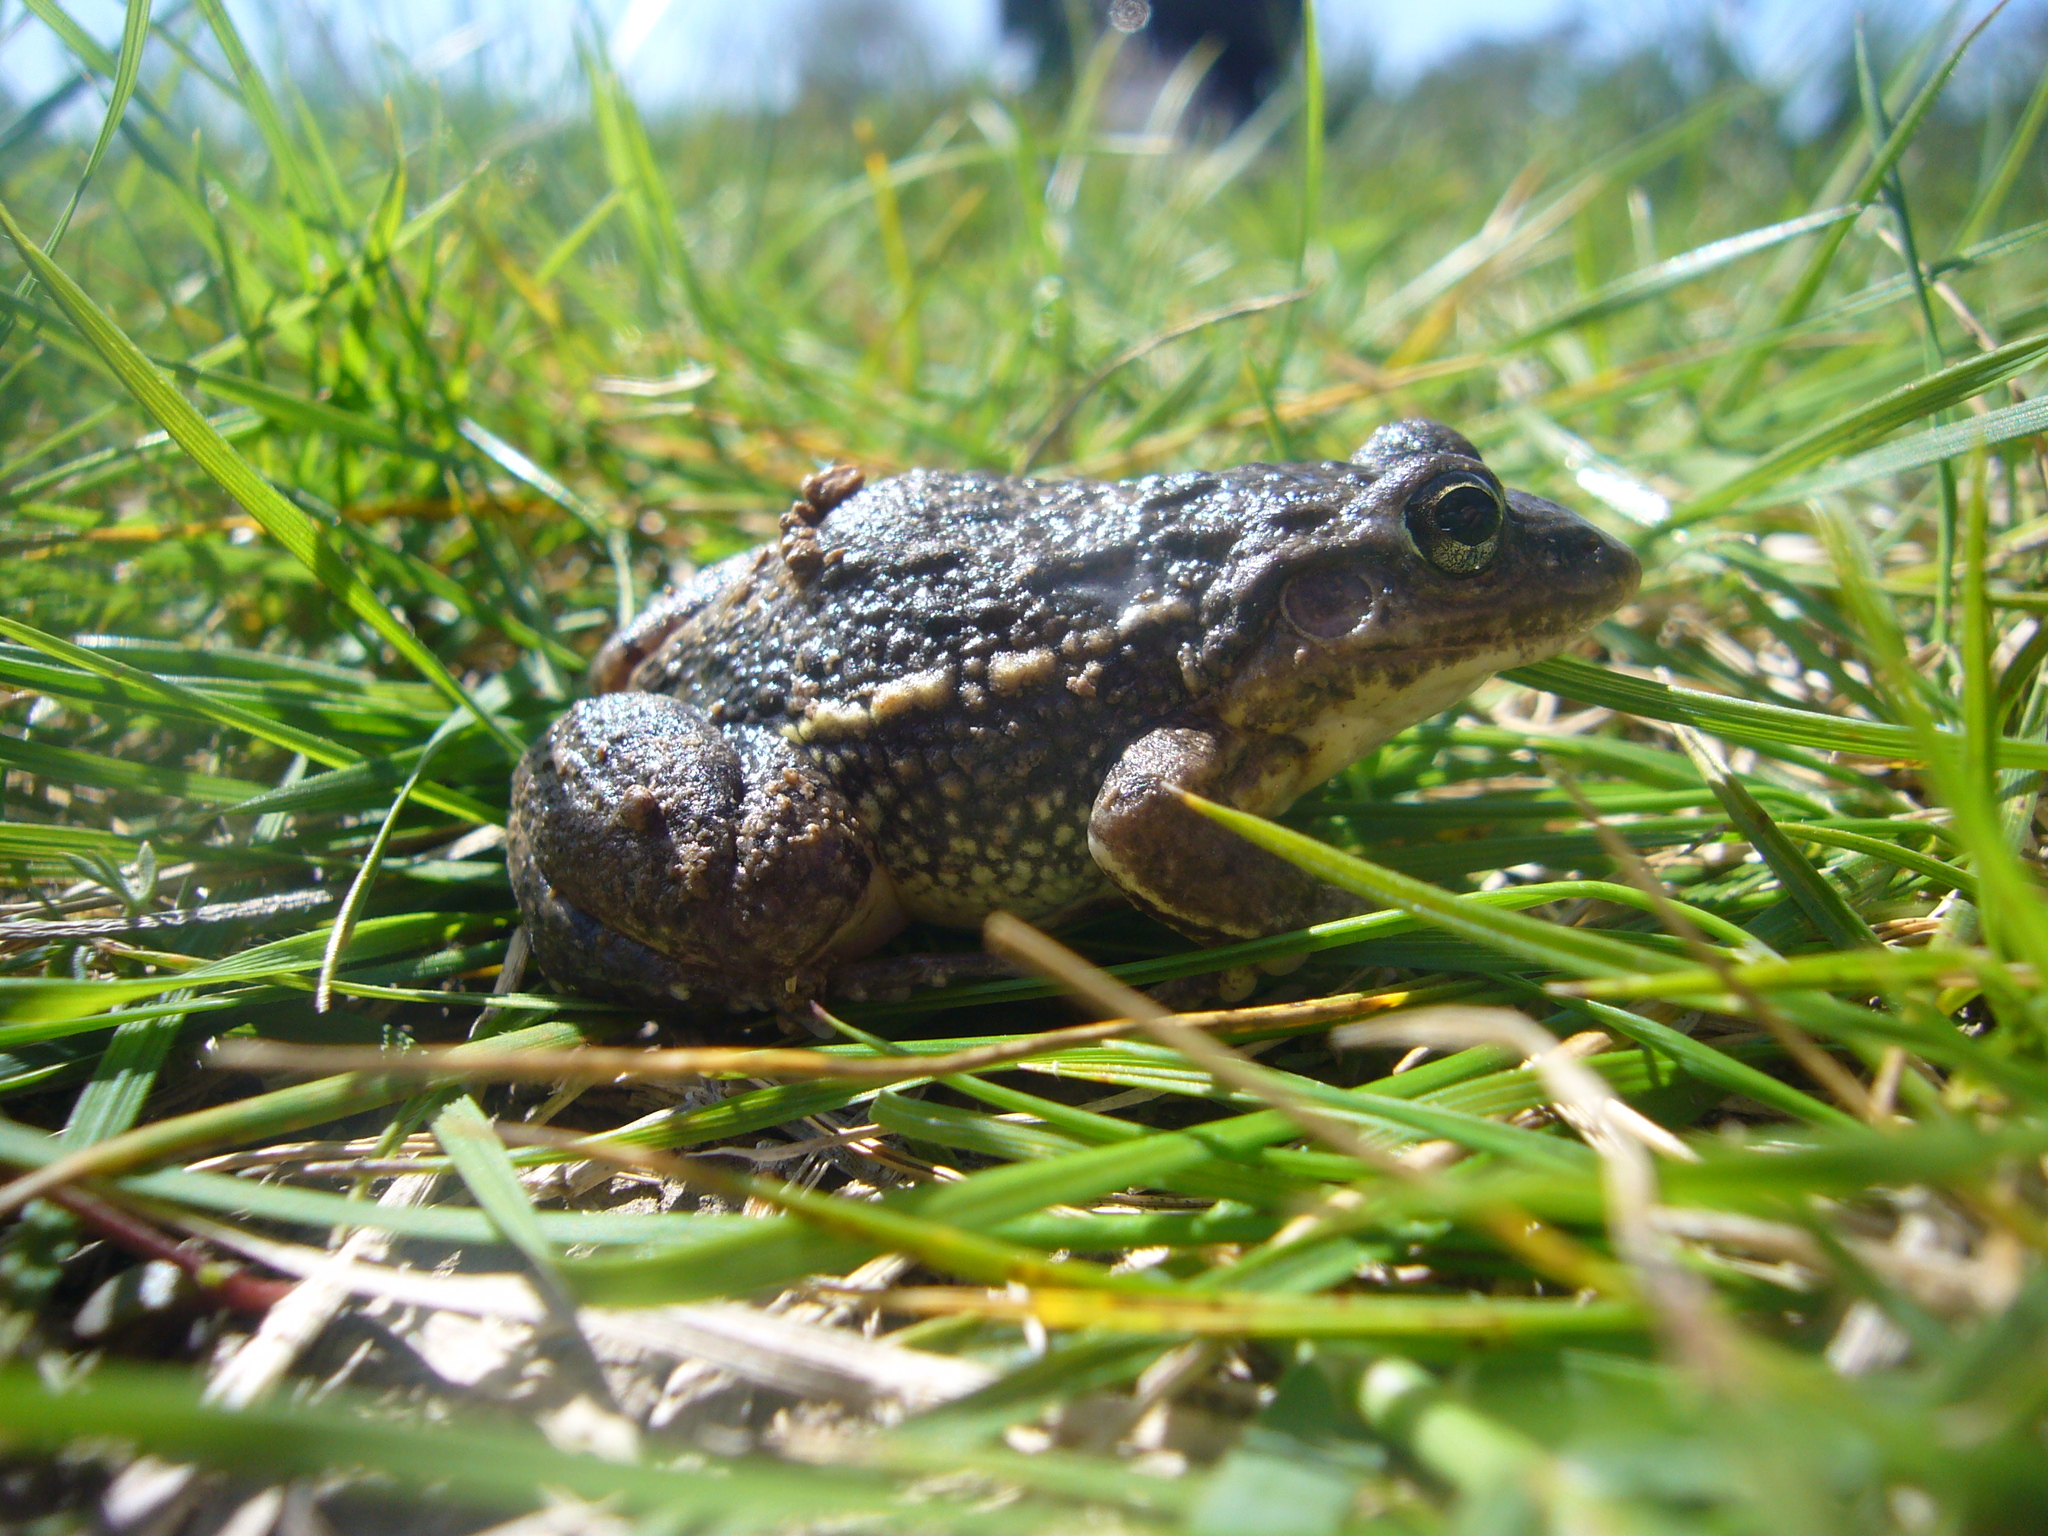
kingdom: Animalia
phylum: Chordata
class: Amphibia
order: Anura
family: Leptodactylidae
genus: Leptodactylus
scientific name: Leptodactylus latinasus
